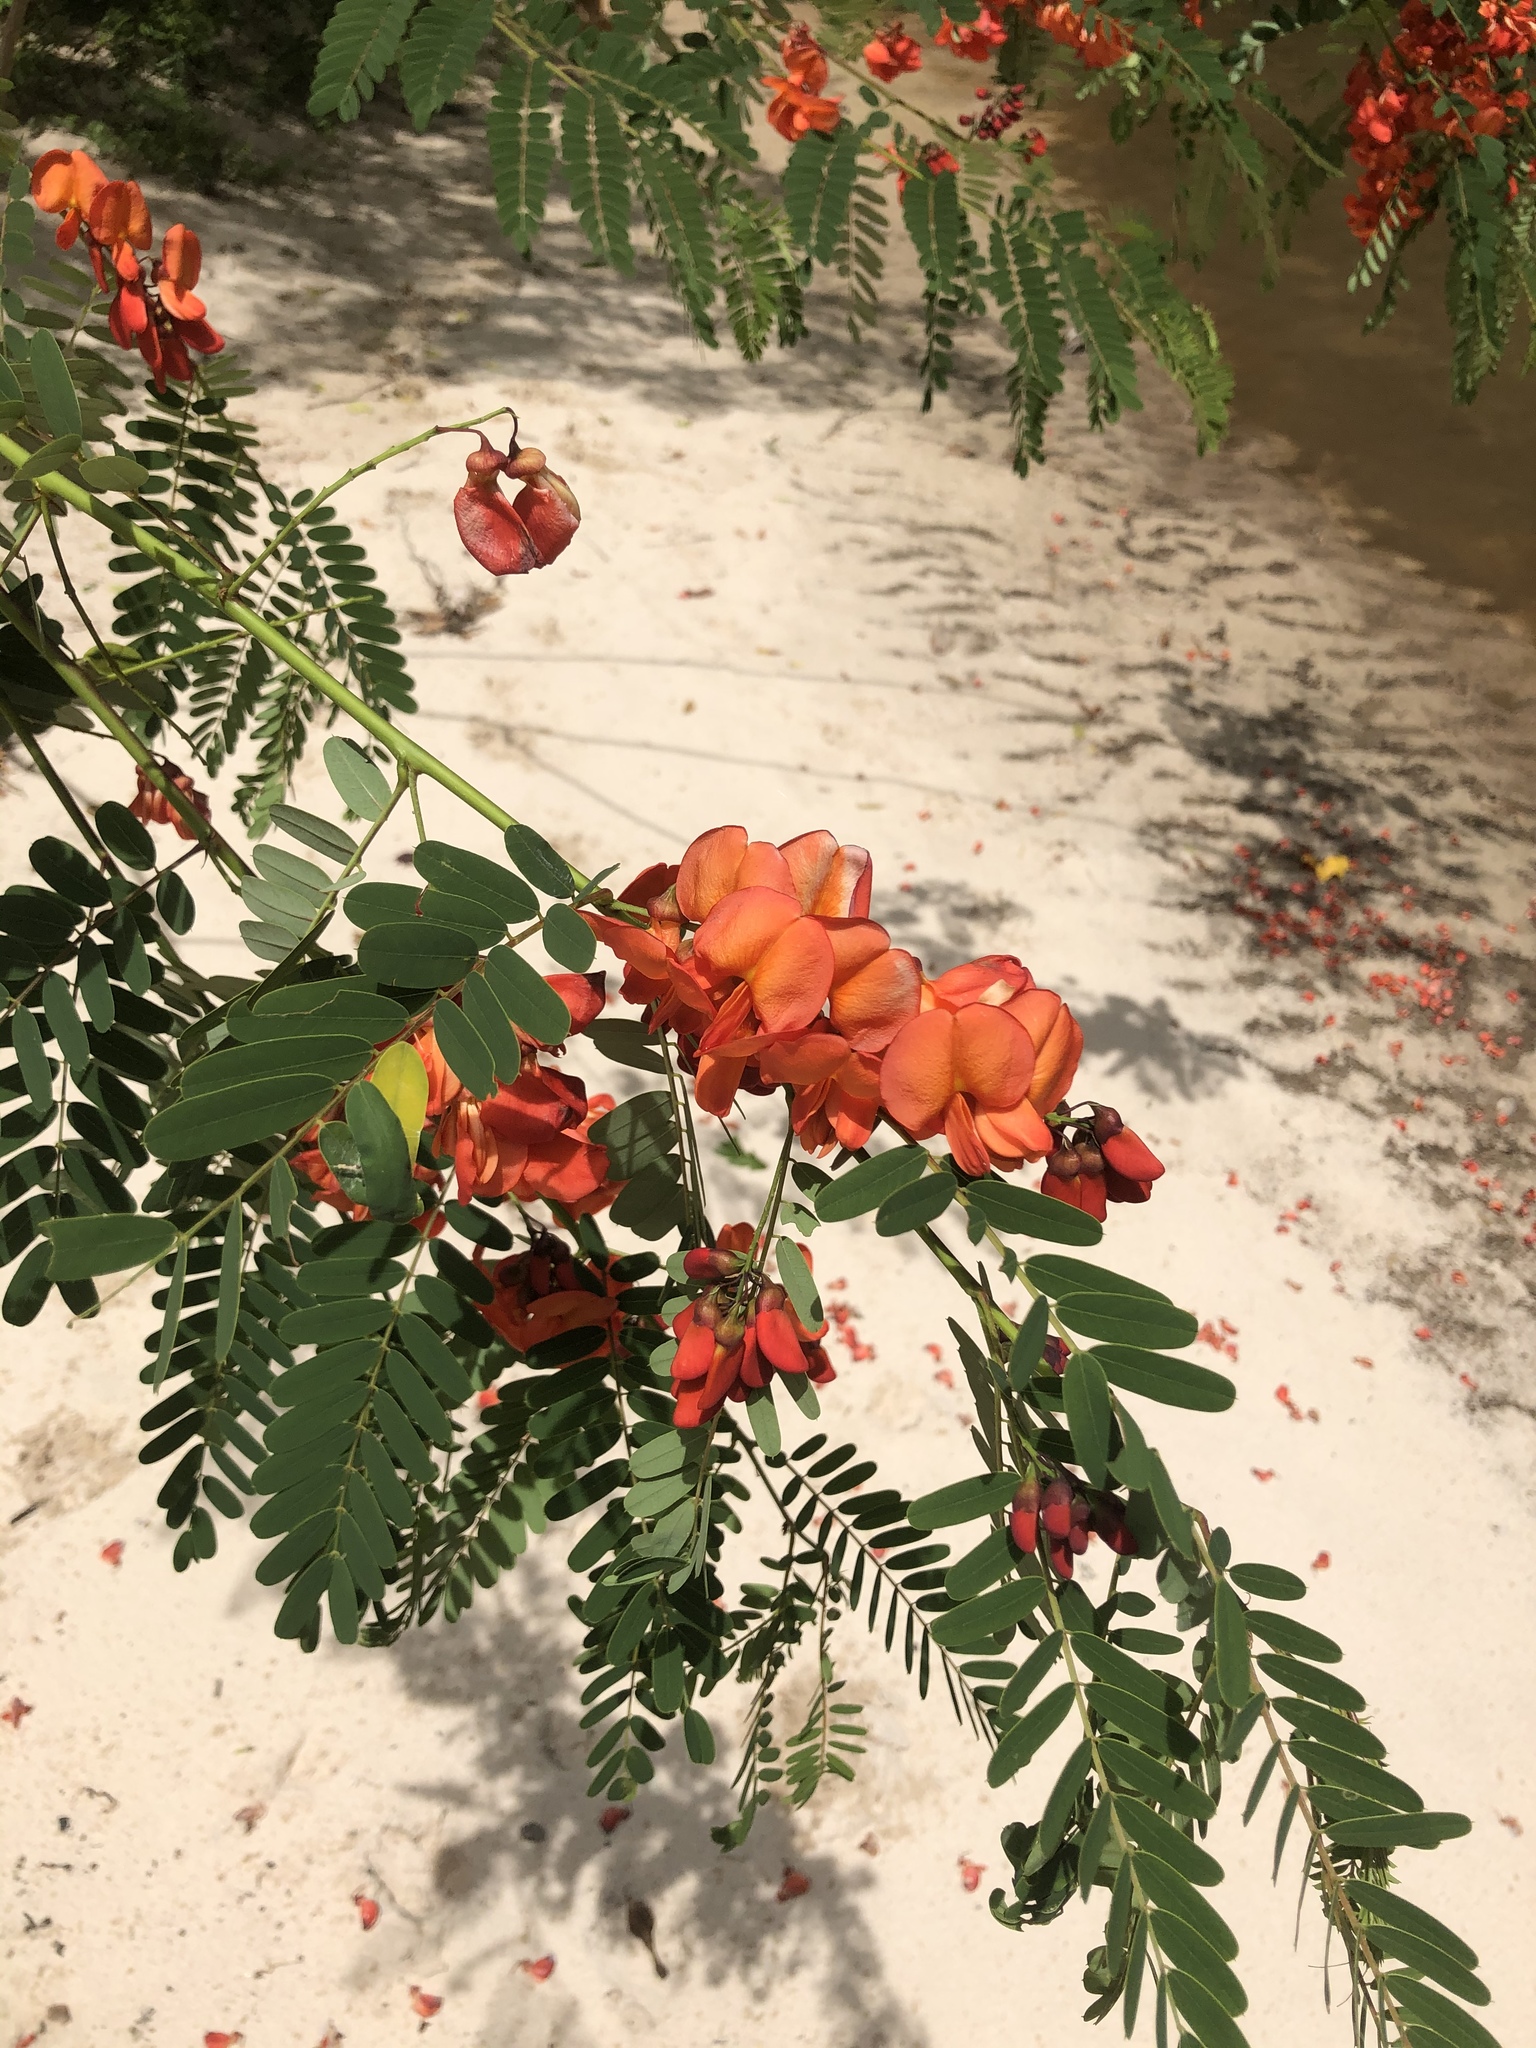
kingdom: Plantae
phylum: Tracheophyta
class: Magnoliopsida
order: Fabales
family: Fabaceae
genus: Sesbania
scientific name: Sesbania punicea
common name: Rattlebox
